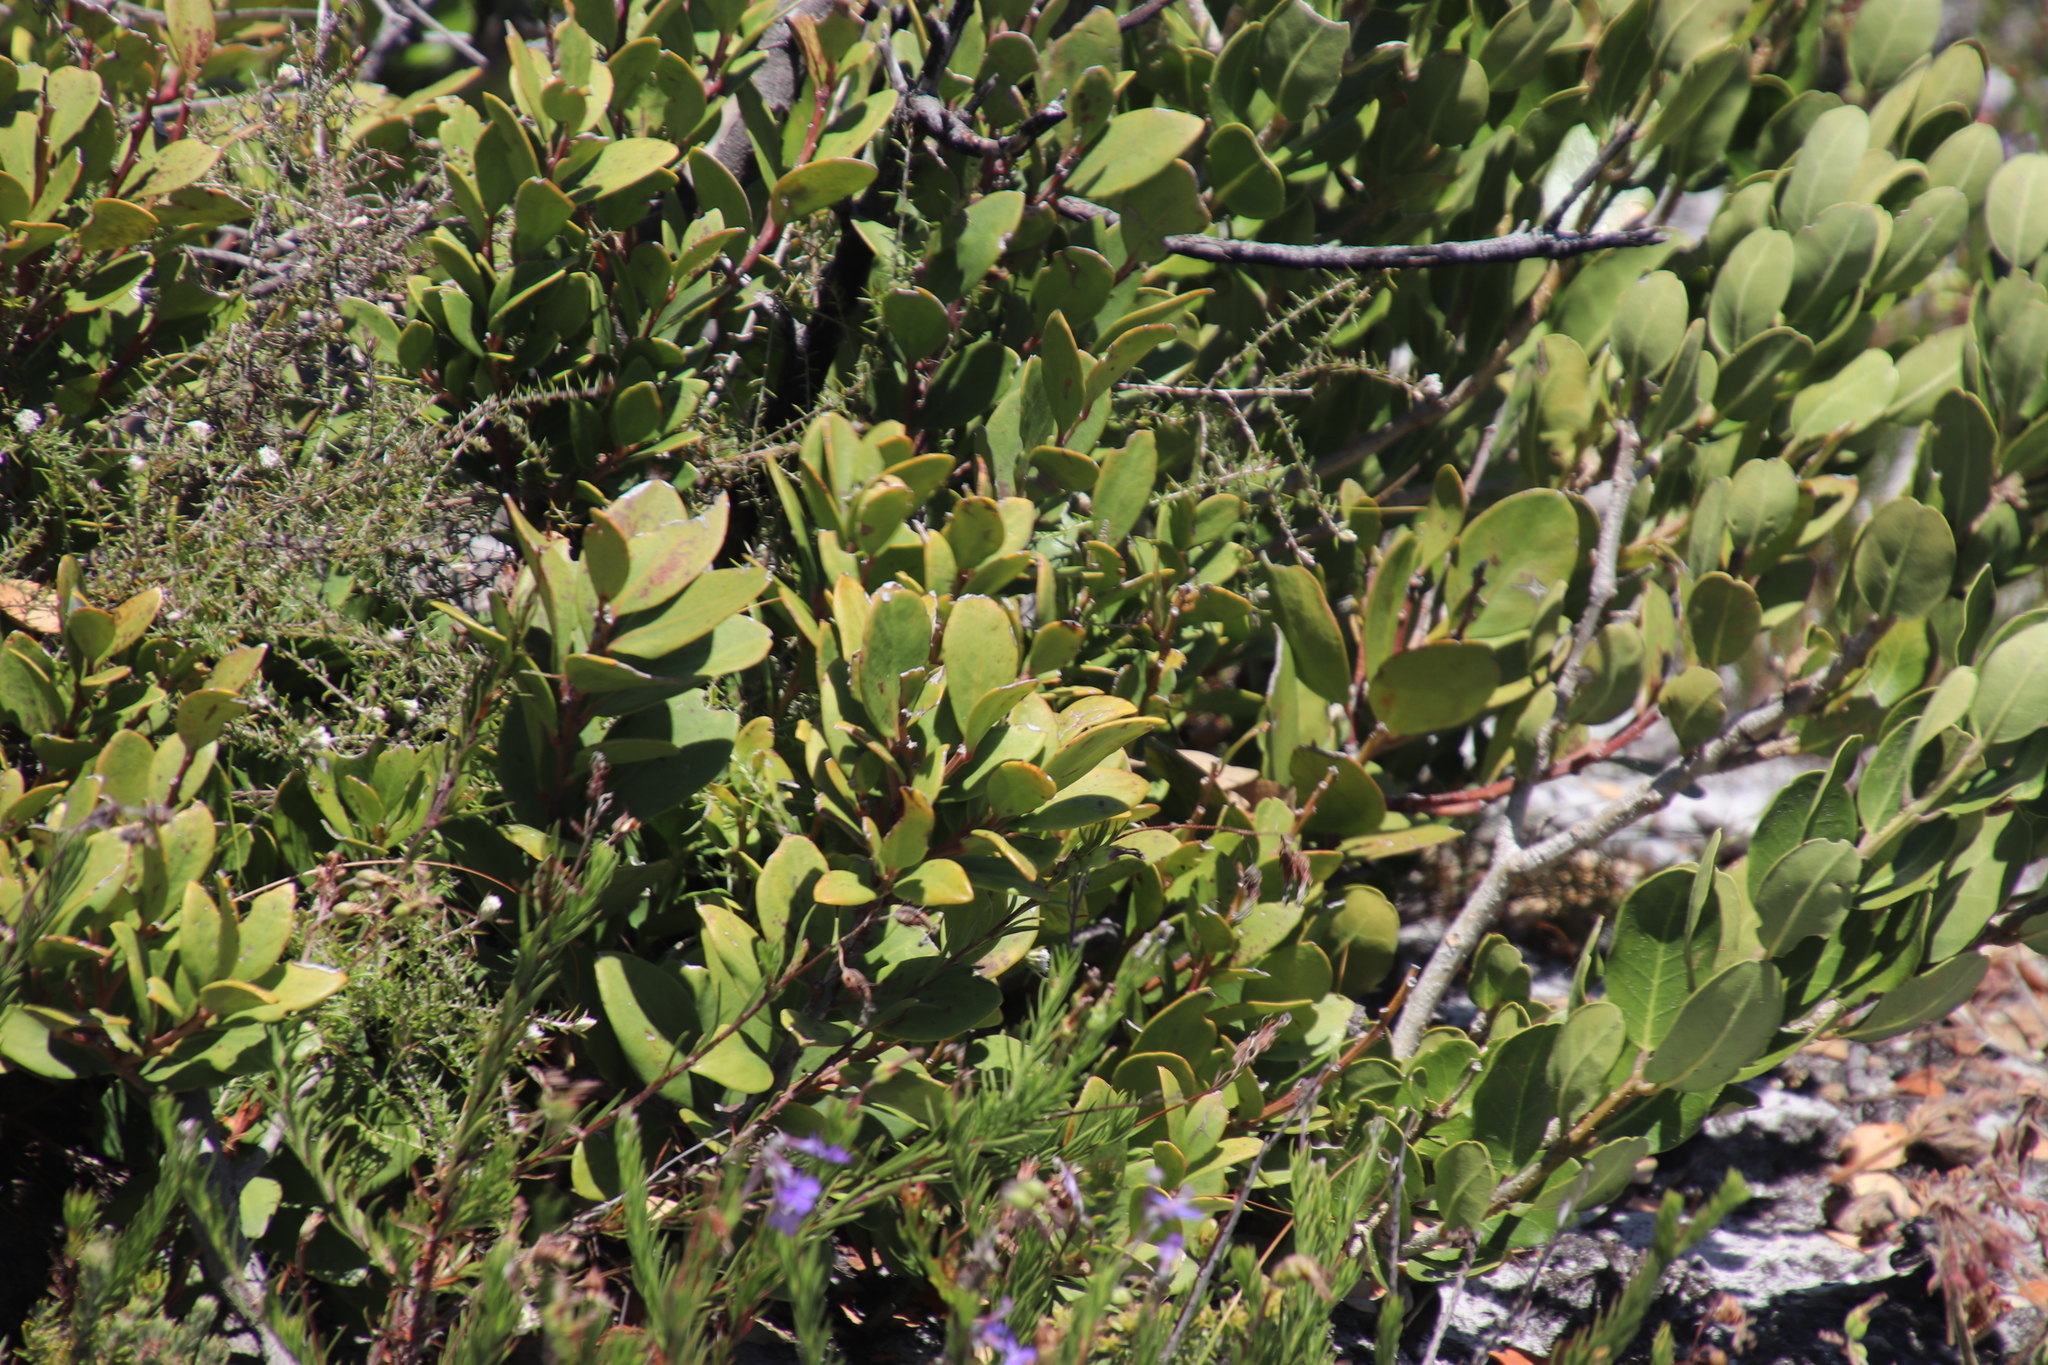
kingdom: Plantae
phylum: Tracheophyta
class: Magnoliopsida
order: Ericales
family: Ebenaceae
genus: Euclea
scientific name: Euclea racemosa
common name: Dune guarri
